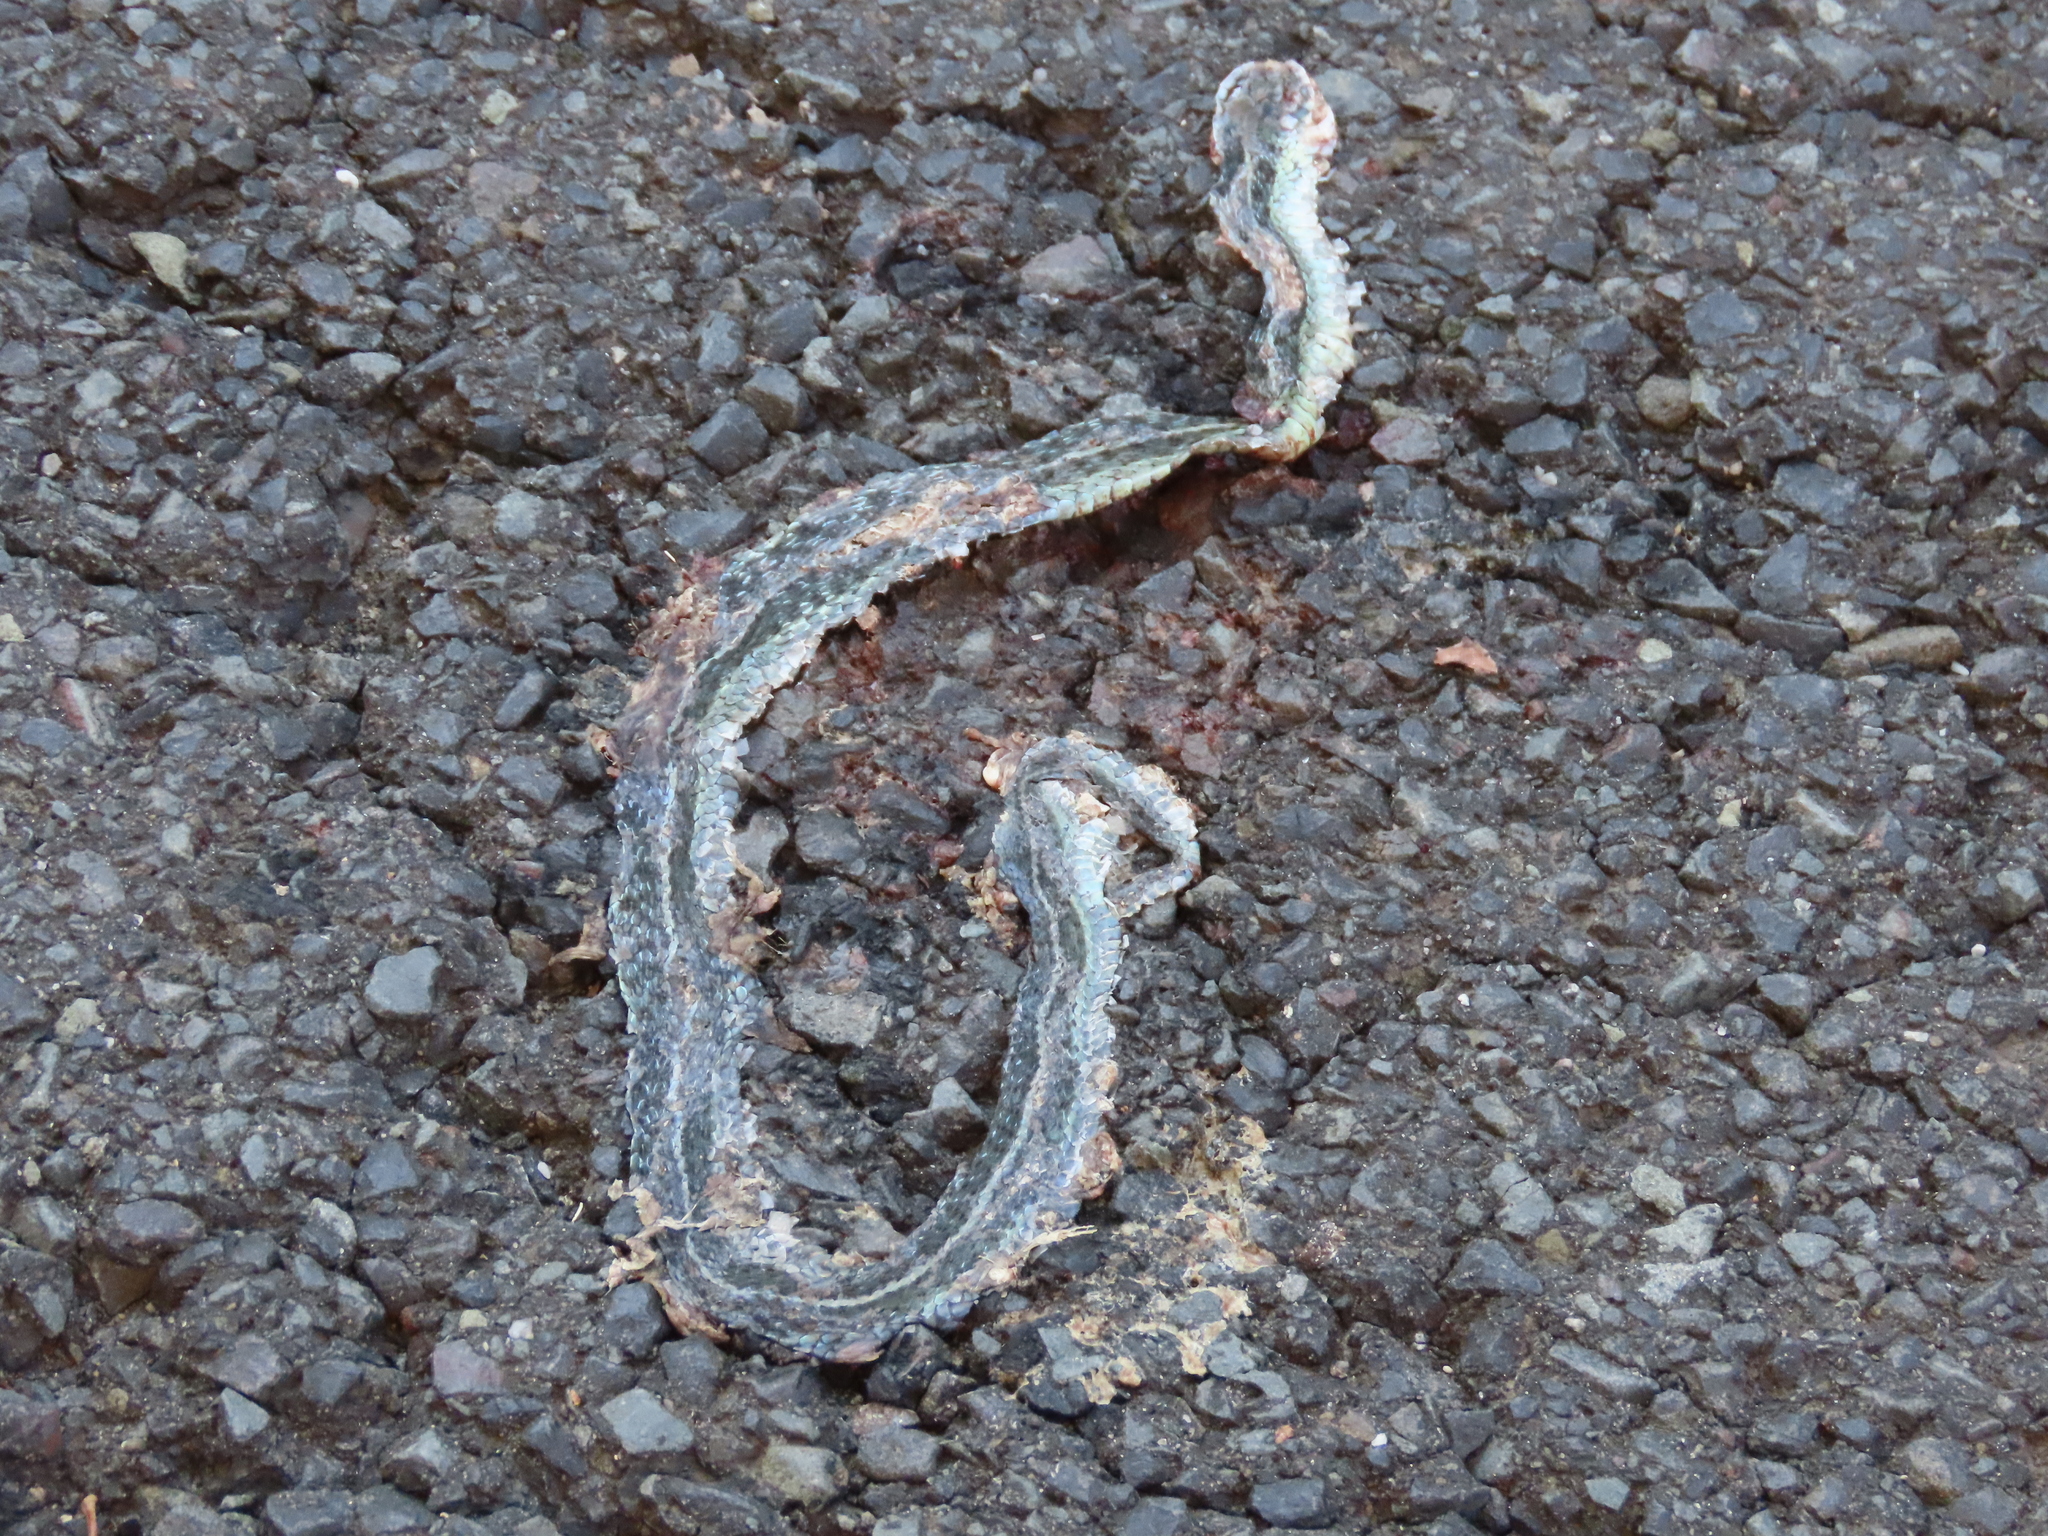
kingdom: Animalia
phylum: Chordata
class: Squamata
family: Colubridae
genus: Thamnophis
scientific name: Thamnophis sirtalis
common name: Common garter snake
